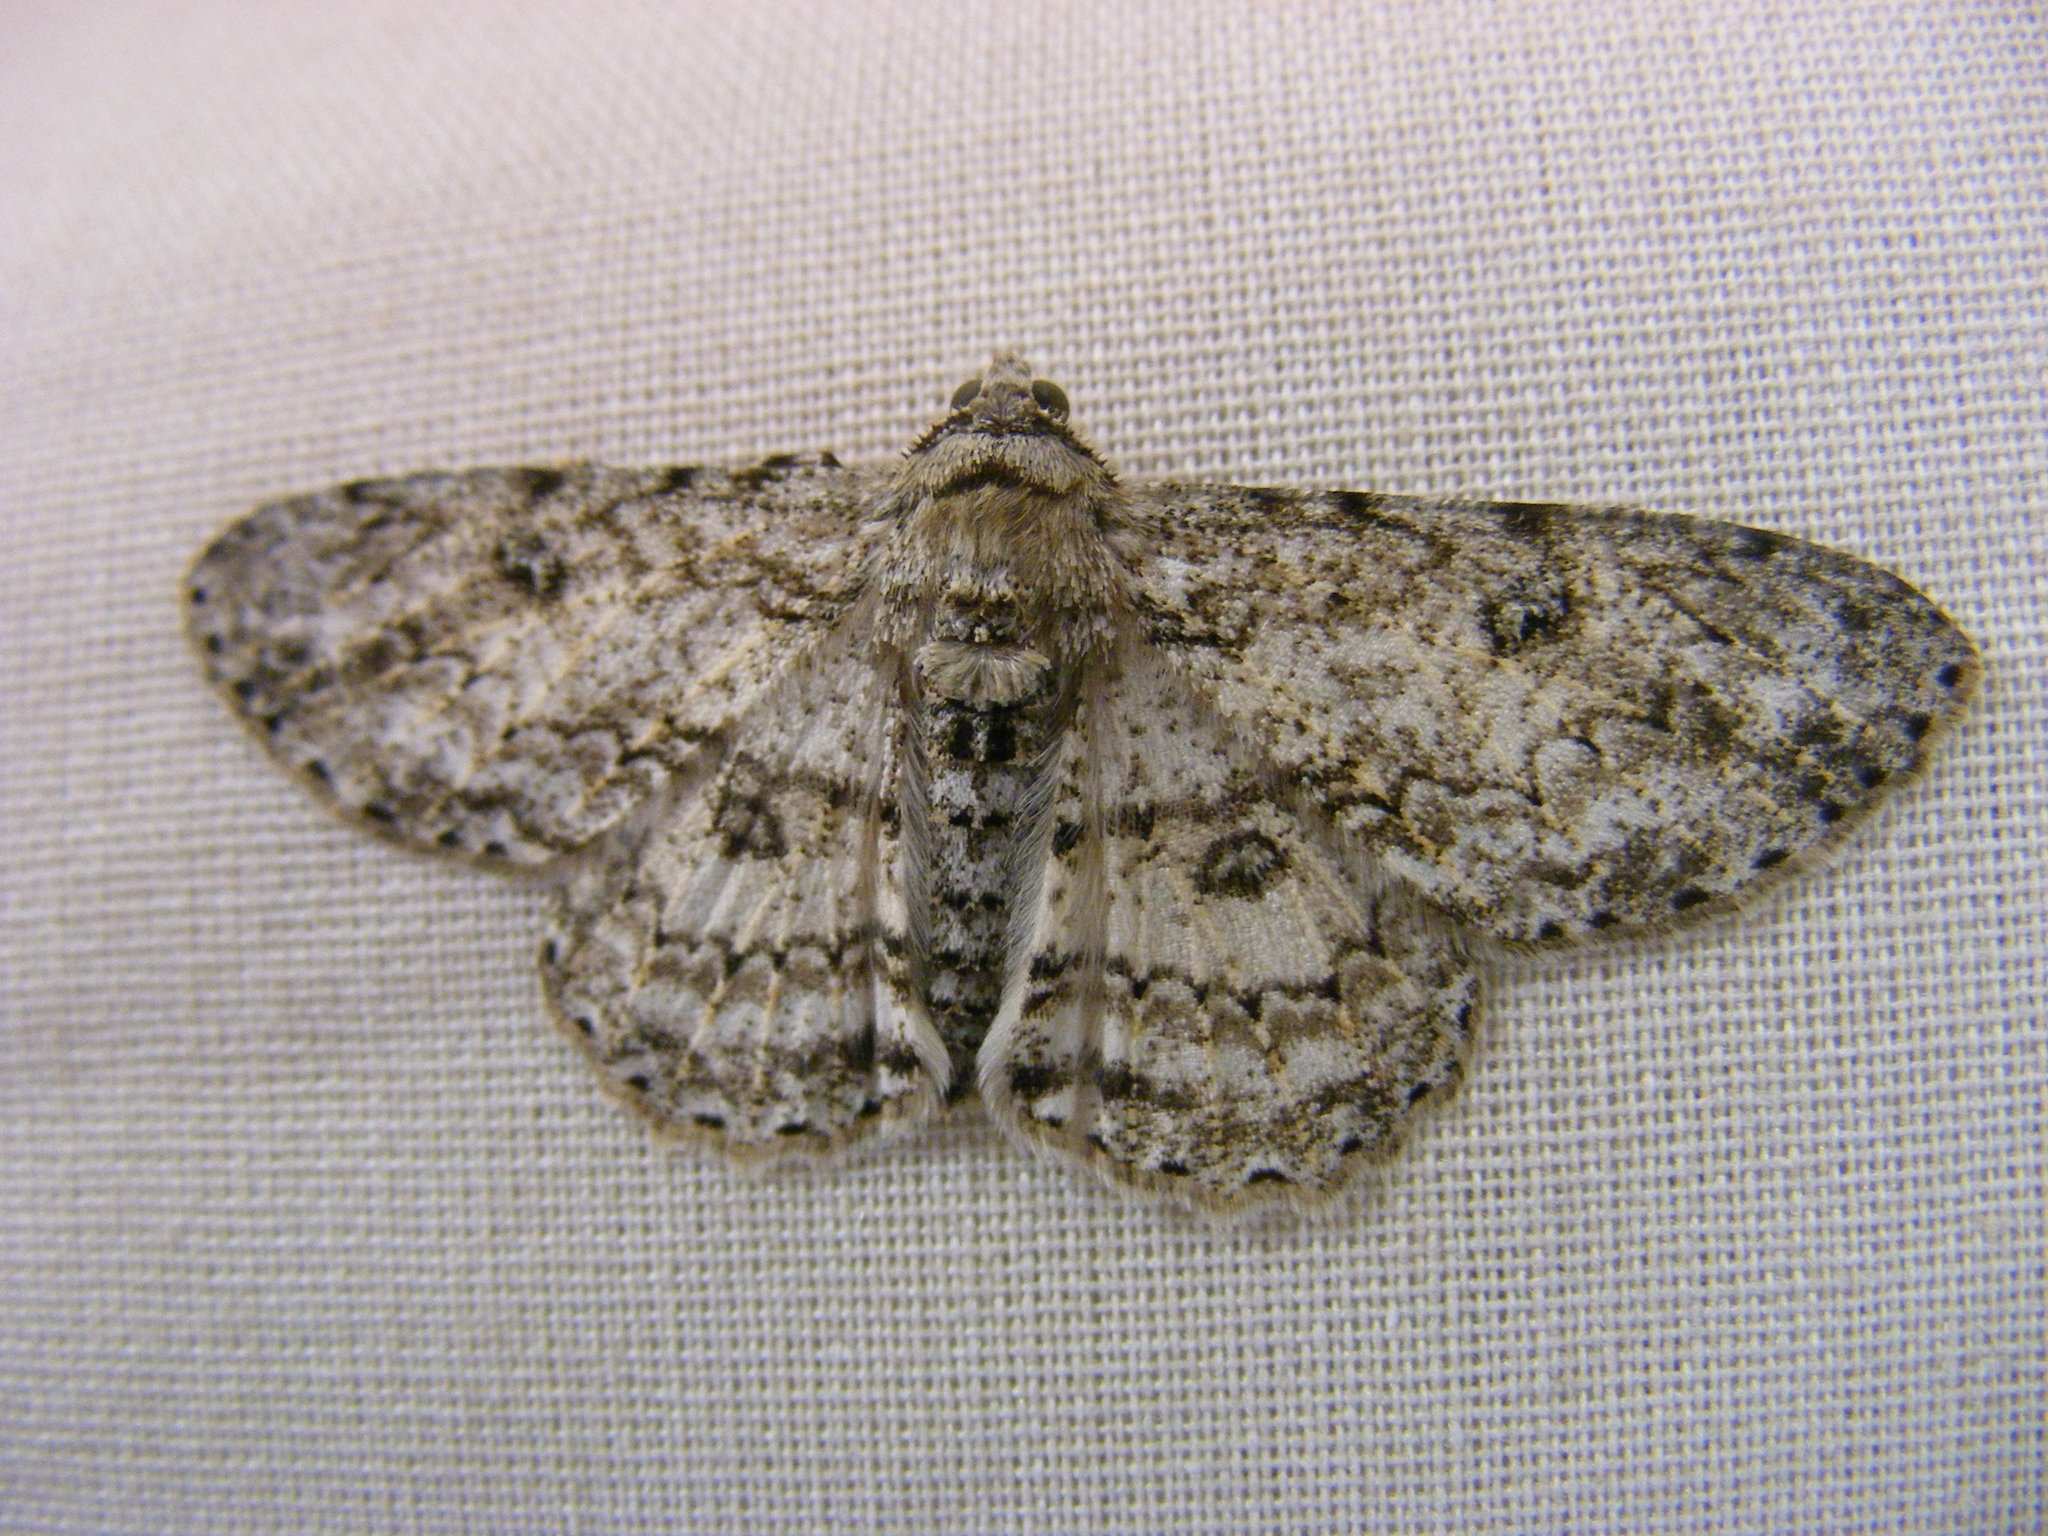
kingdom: Animalia
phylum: Arthropoda
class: Insecta
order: Lepidoptera
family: Geometridae
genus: Ascotis
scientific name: Ascotis reciprocaria
